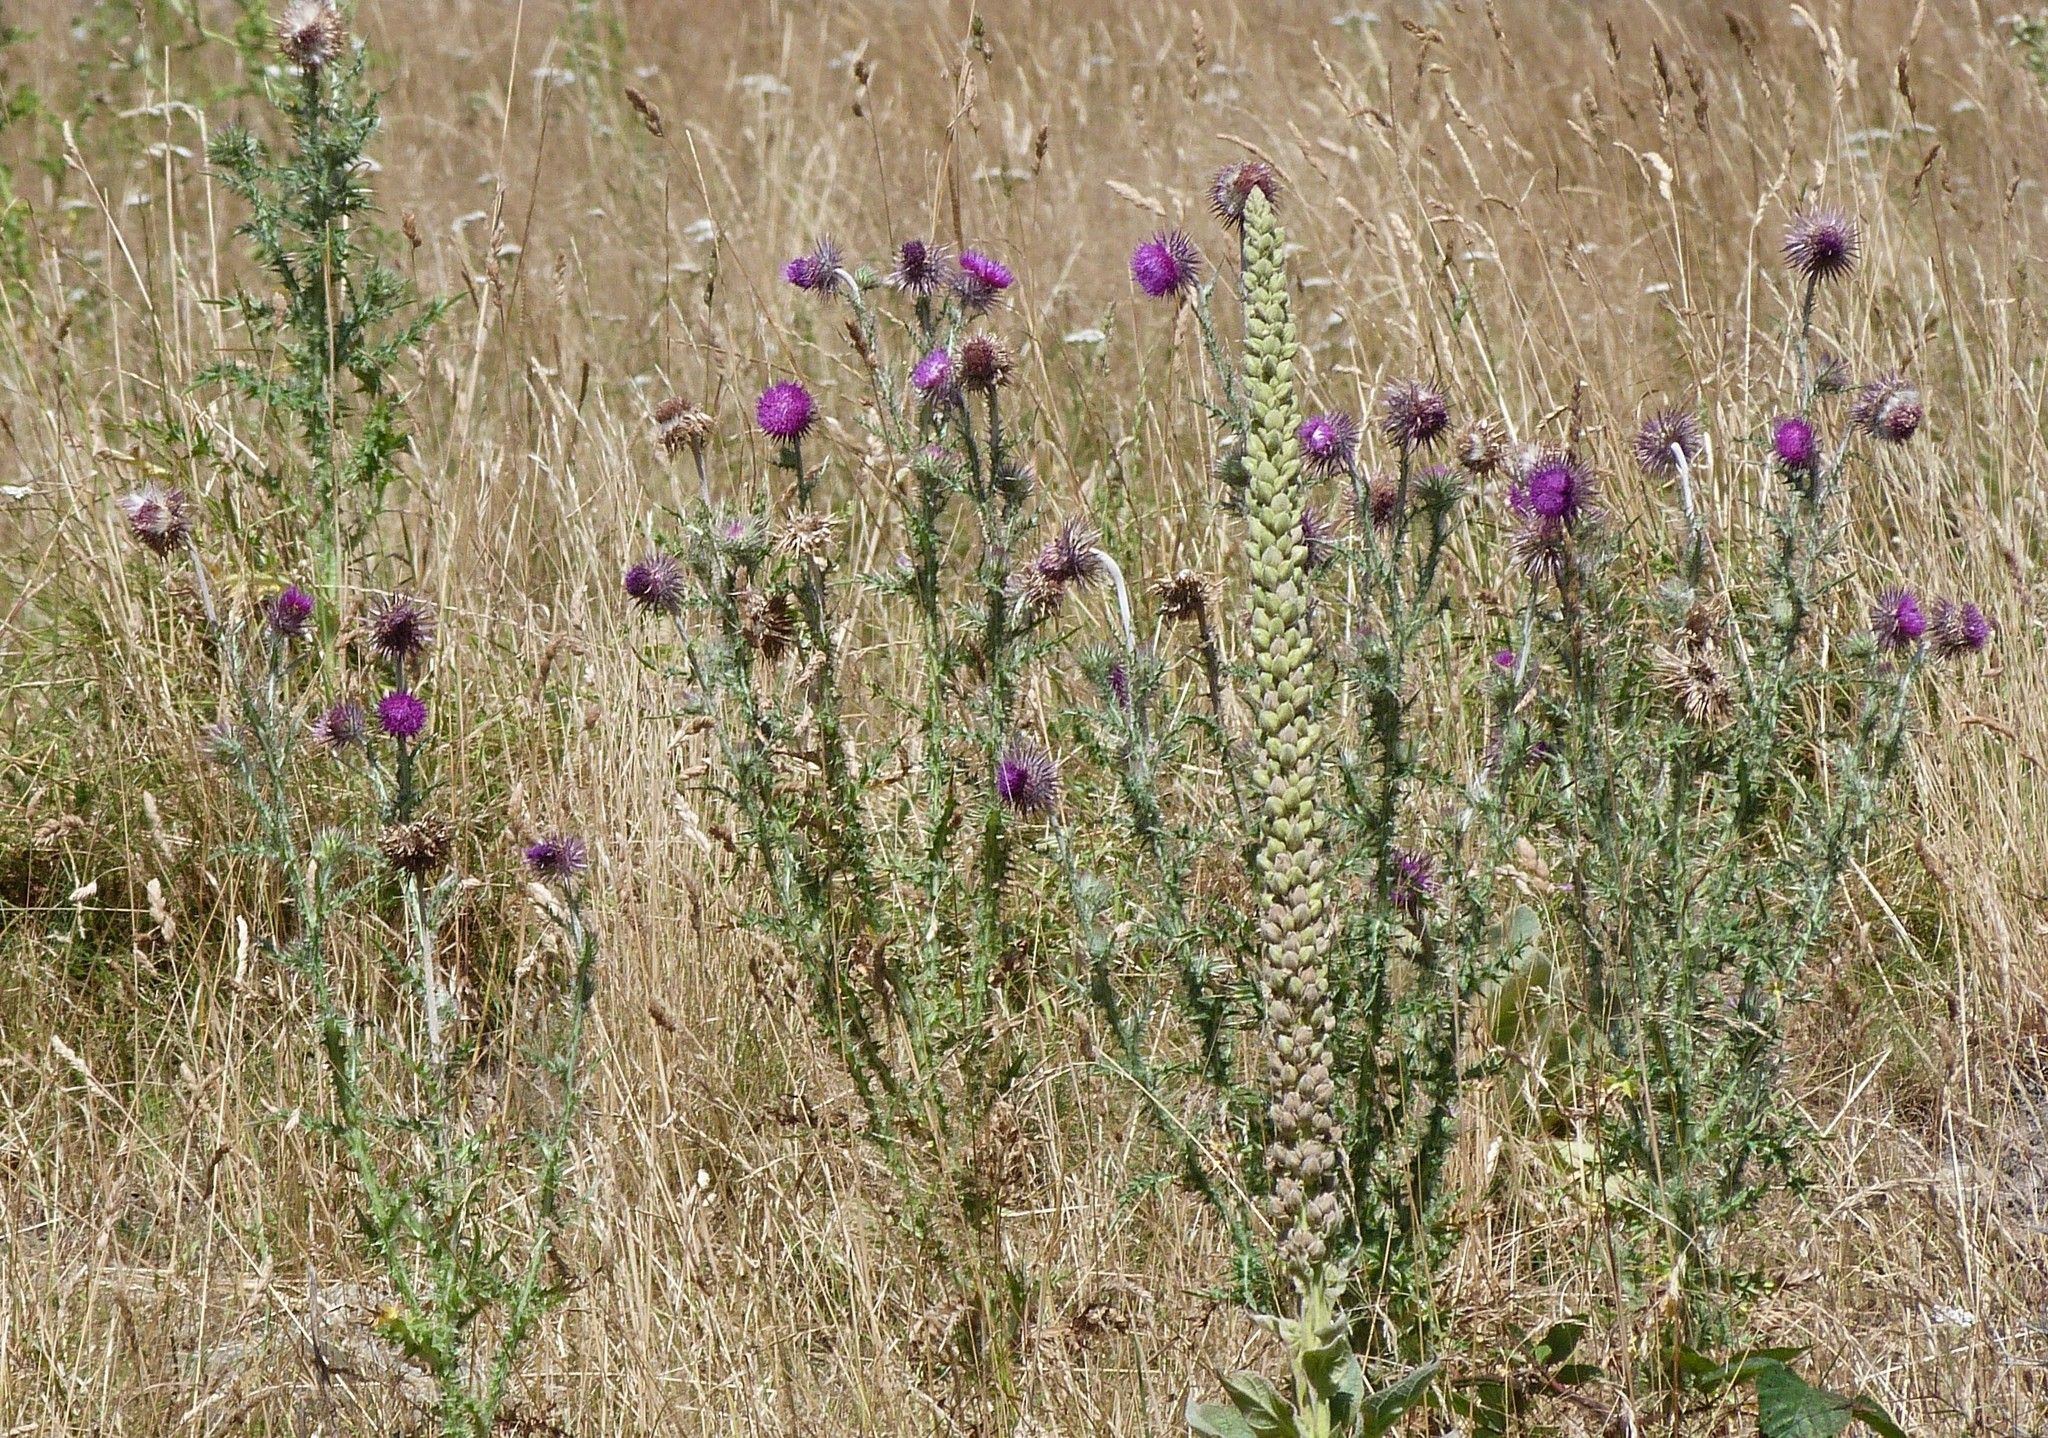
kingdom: Plantae
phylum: Tracheophyta
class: Magnoliopsida
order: Asterales
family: Asteraceae
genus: Carduus
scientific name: Carduus nutans
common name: Musk thistle
